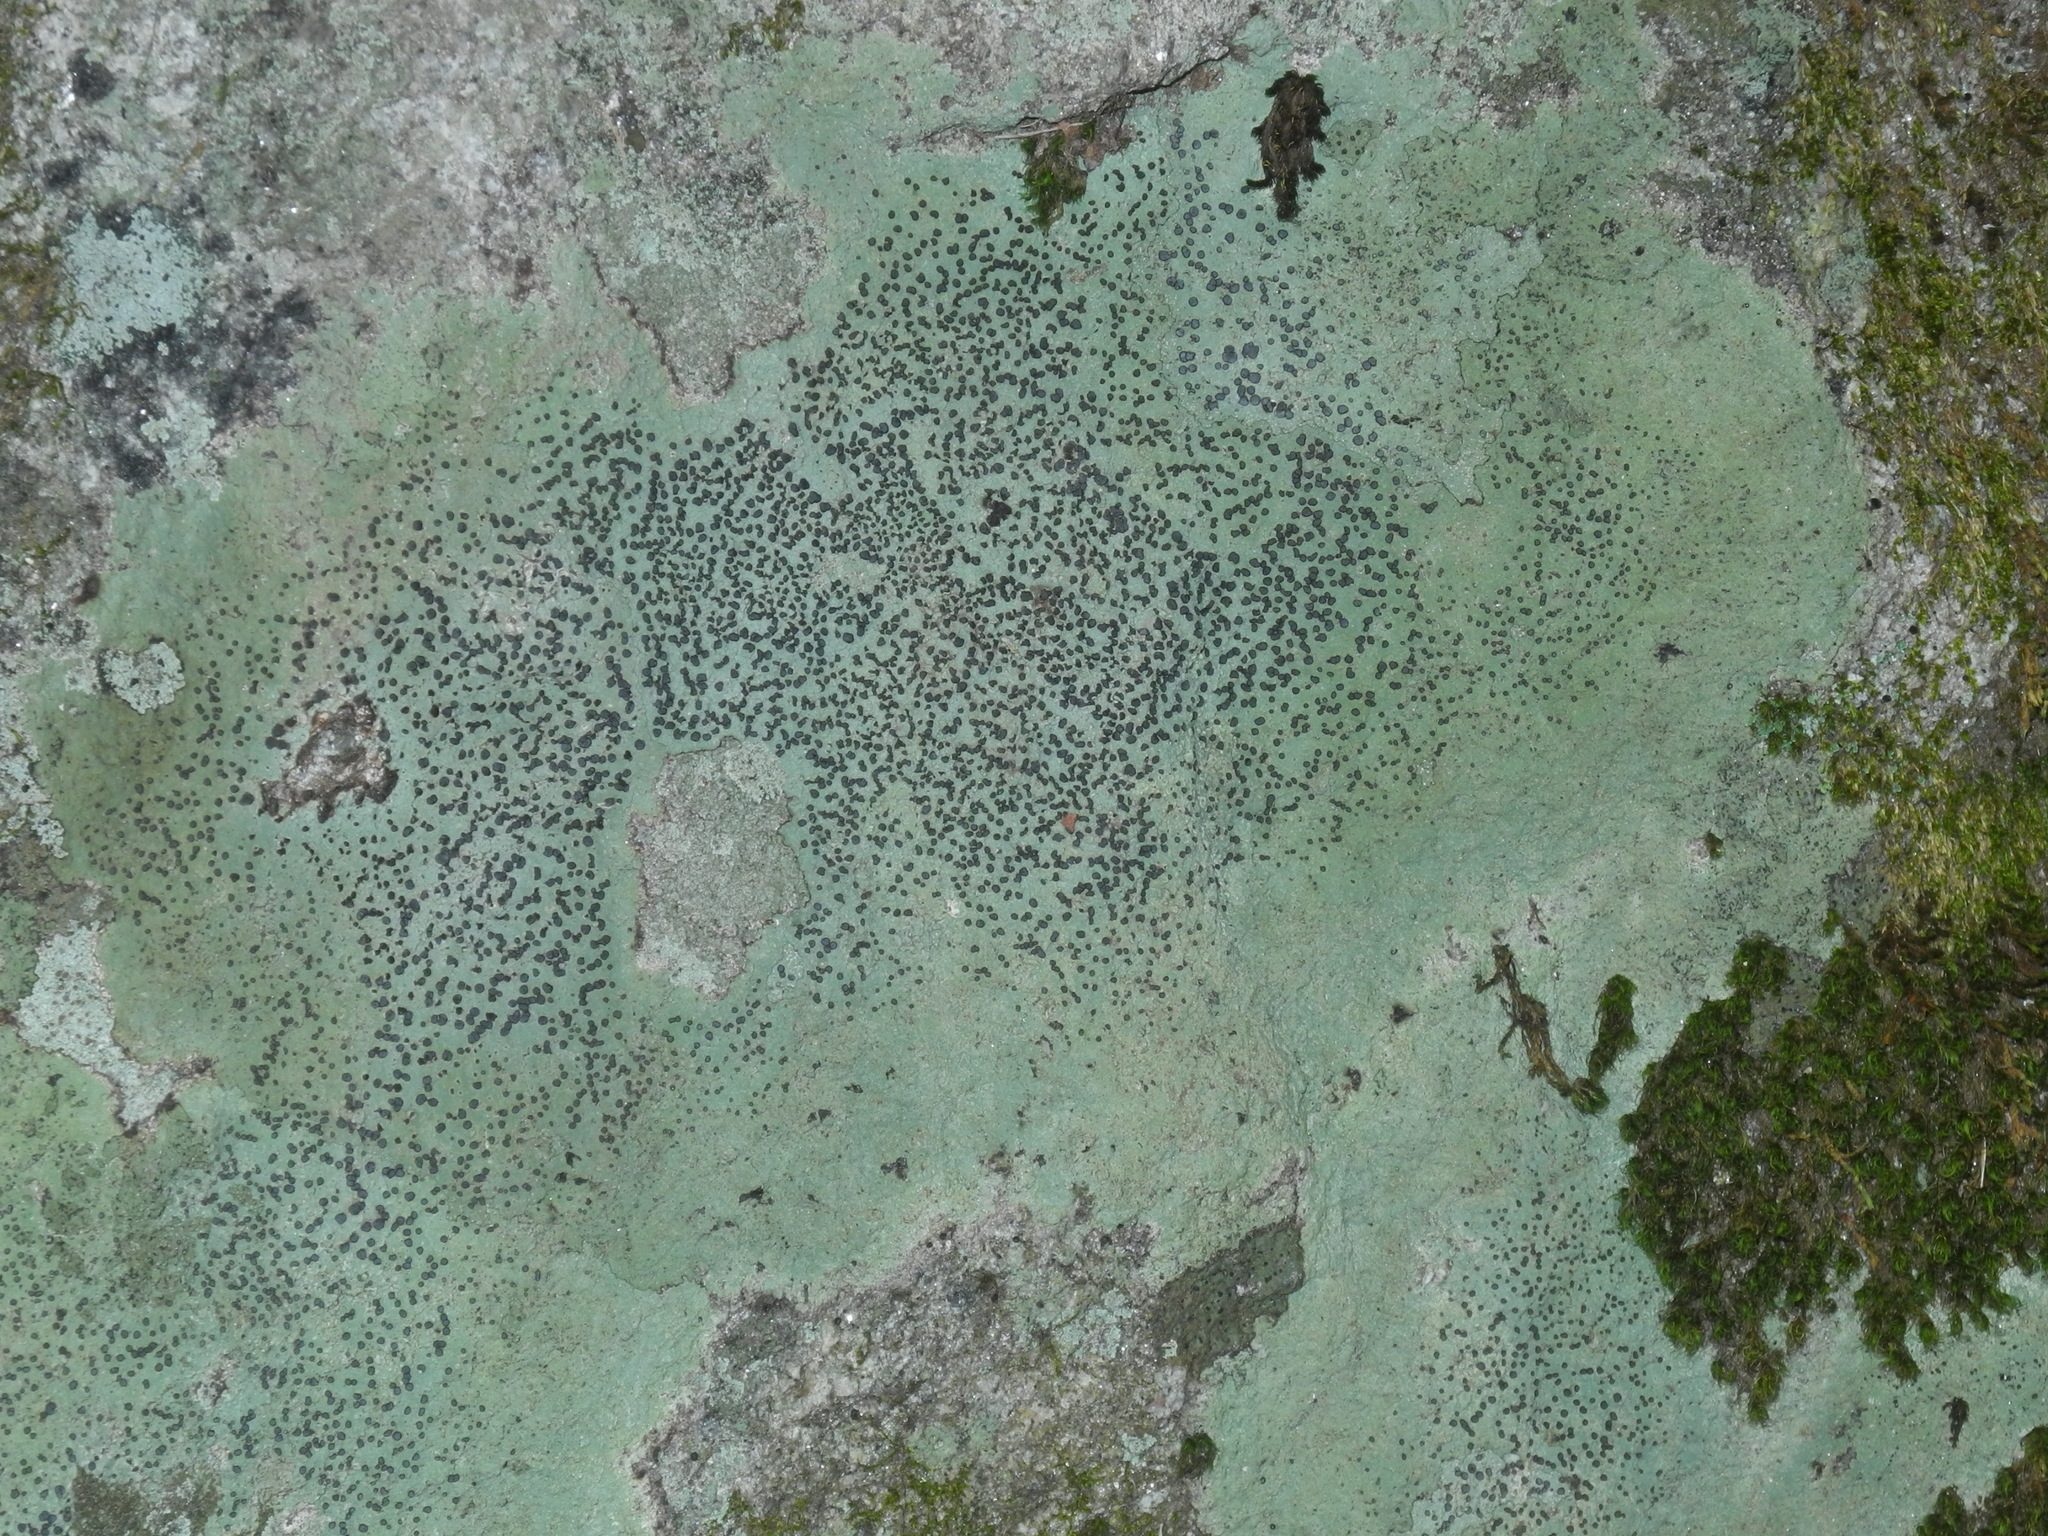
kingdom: Fungi
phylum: Ascomycota
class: Lecanoromycetes
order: Lecideales
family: Lecideaceae
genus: Porpidia
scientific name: Porpidia albocaerulescens
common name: Smokey-eyed boulder lichen
